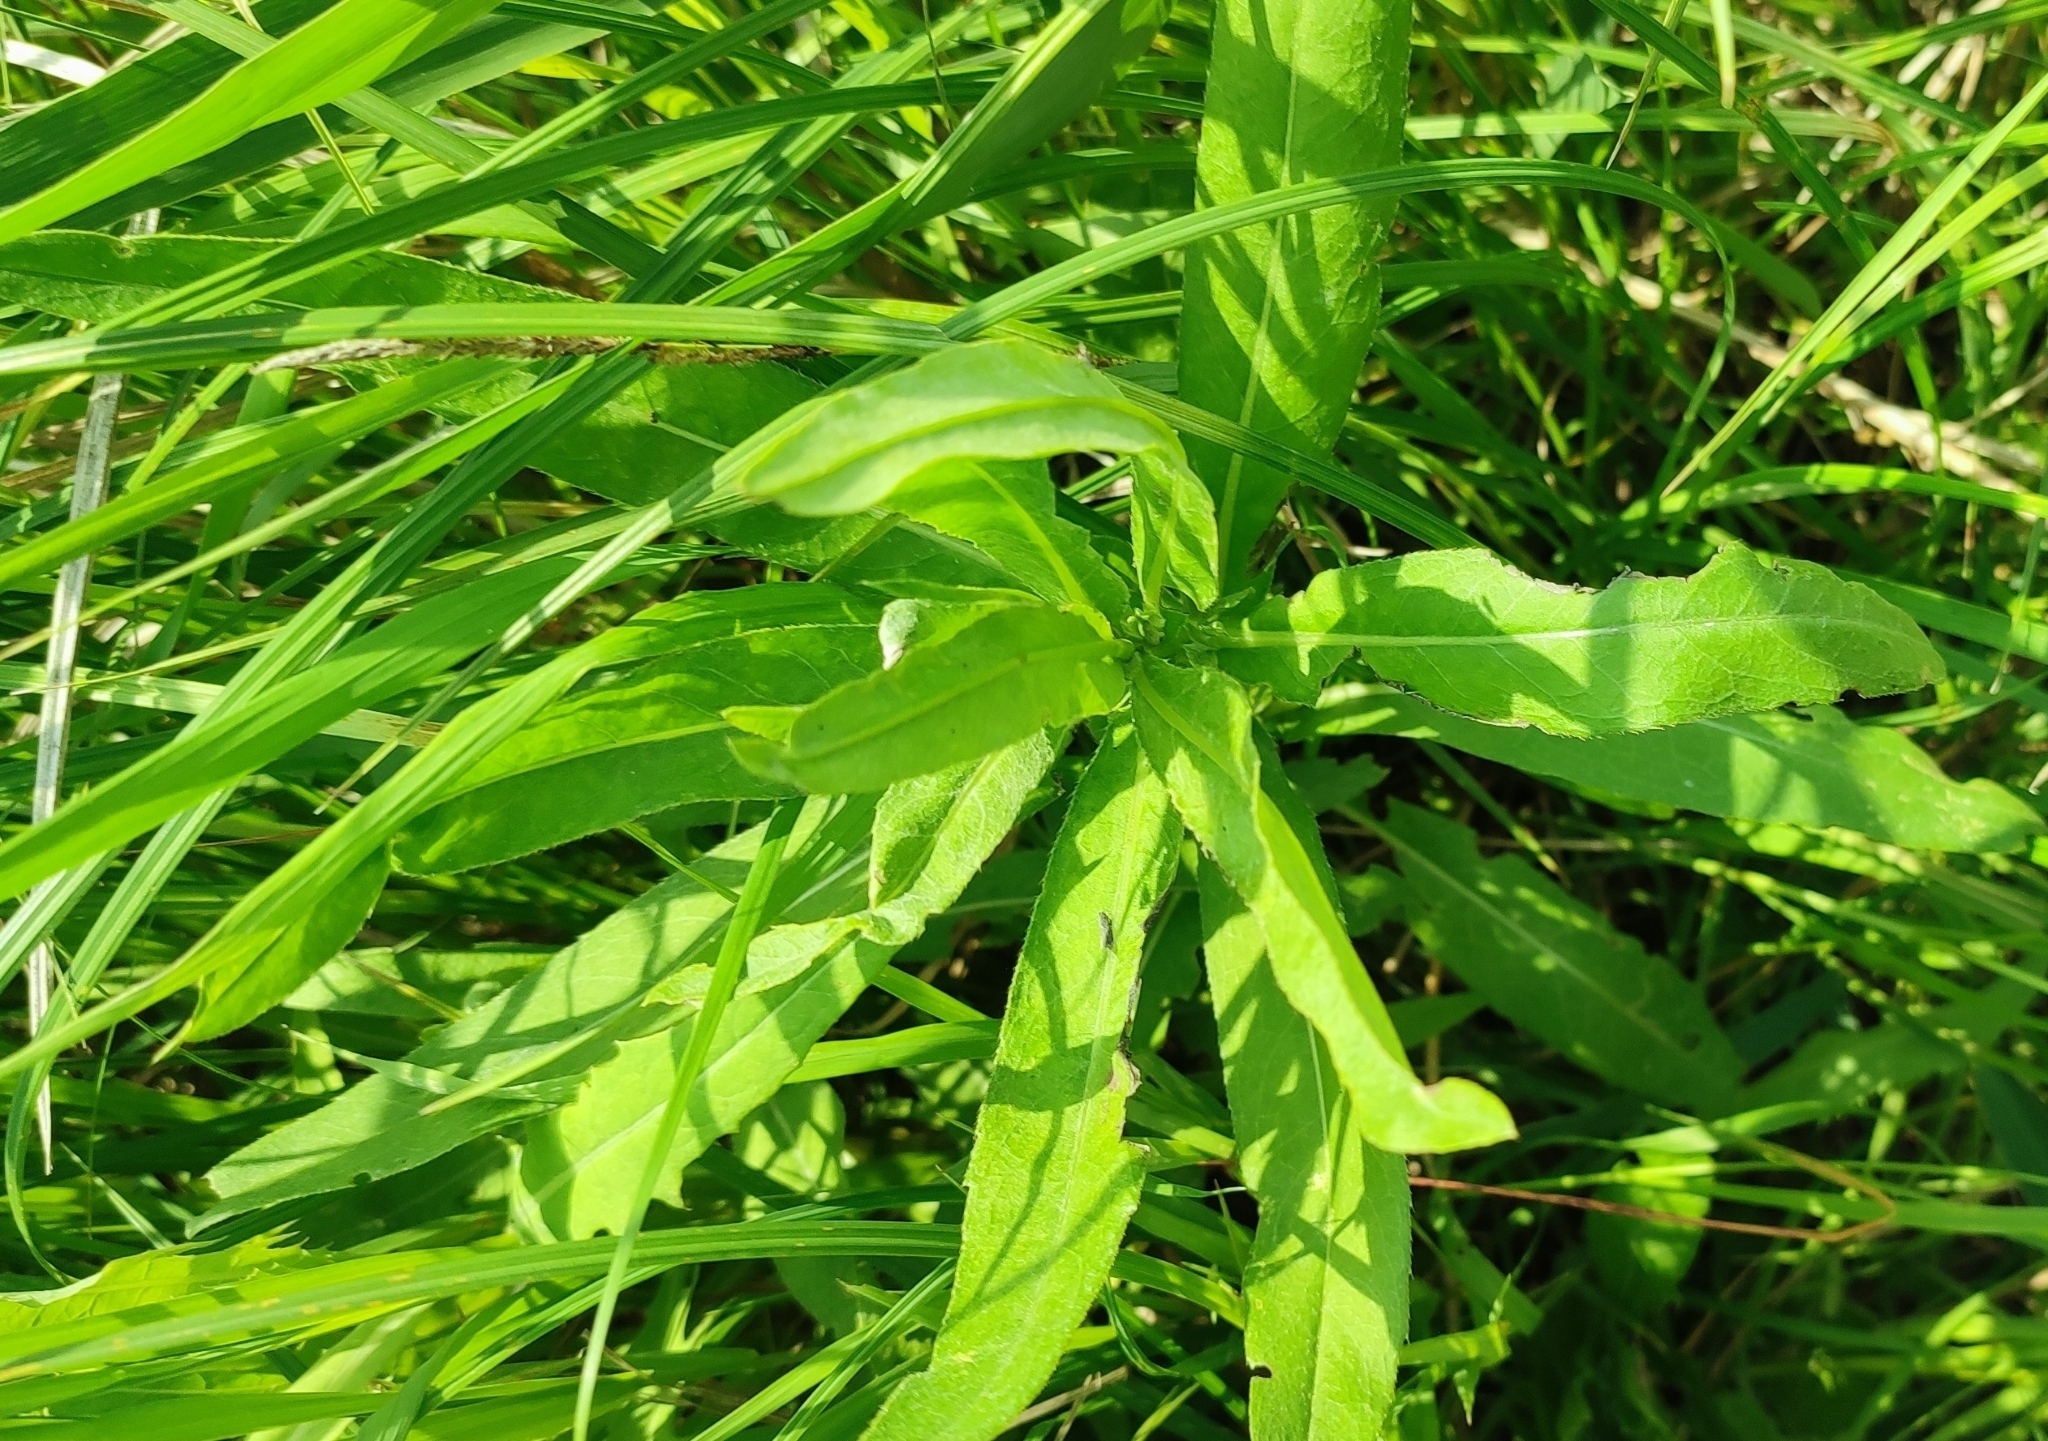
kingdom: Plantae
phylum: Tracheophyta
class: Magnoliopsida
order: Asterales
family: Asteraceae
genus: Cirsium
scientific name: Cirsium arvense
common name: Creeping thistle
